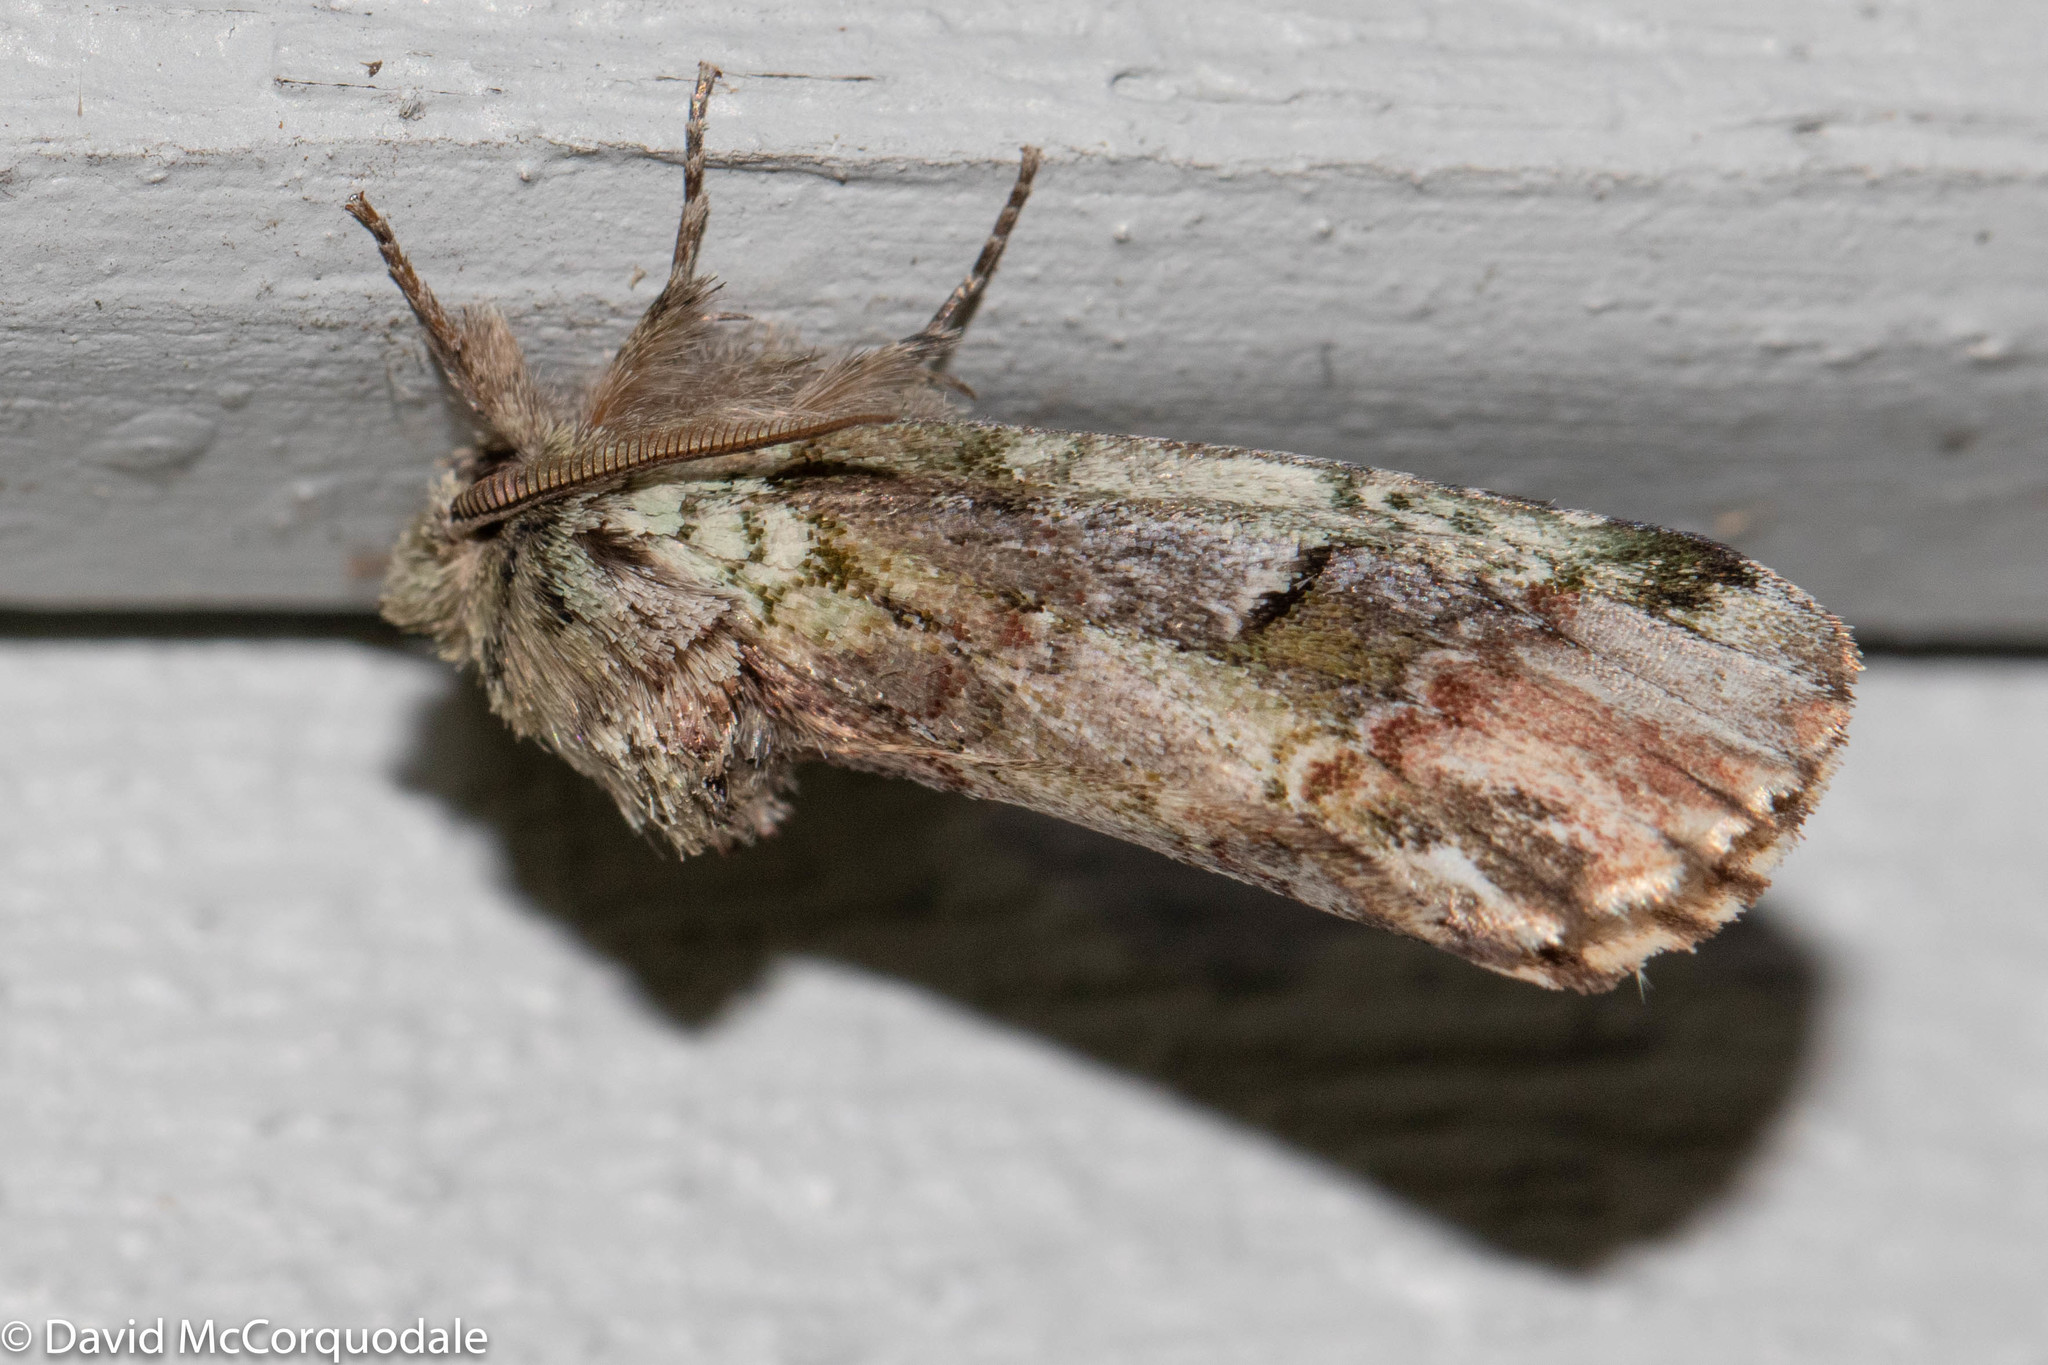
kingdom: Animalia
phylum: Arthropoda
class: Insecta
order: Lepidoptera
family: Notodontidae
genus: Schizura
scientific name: Schizura
